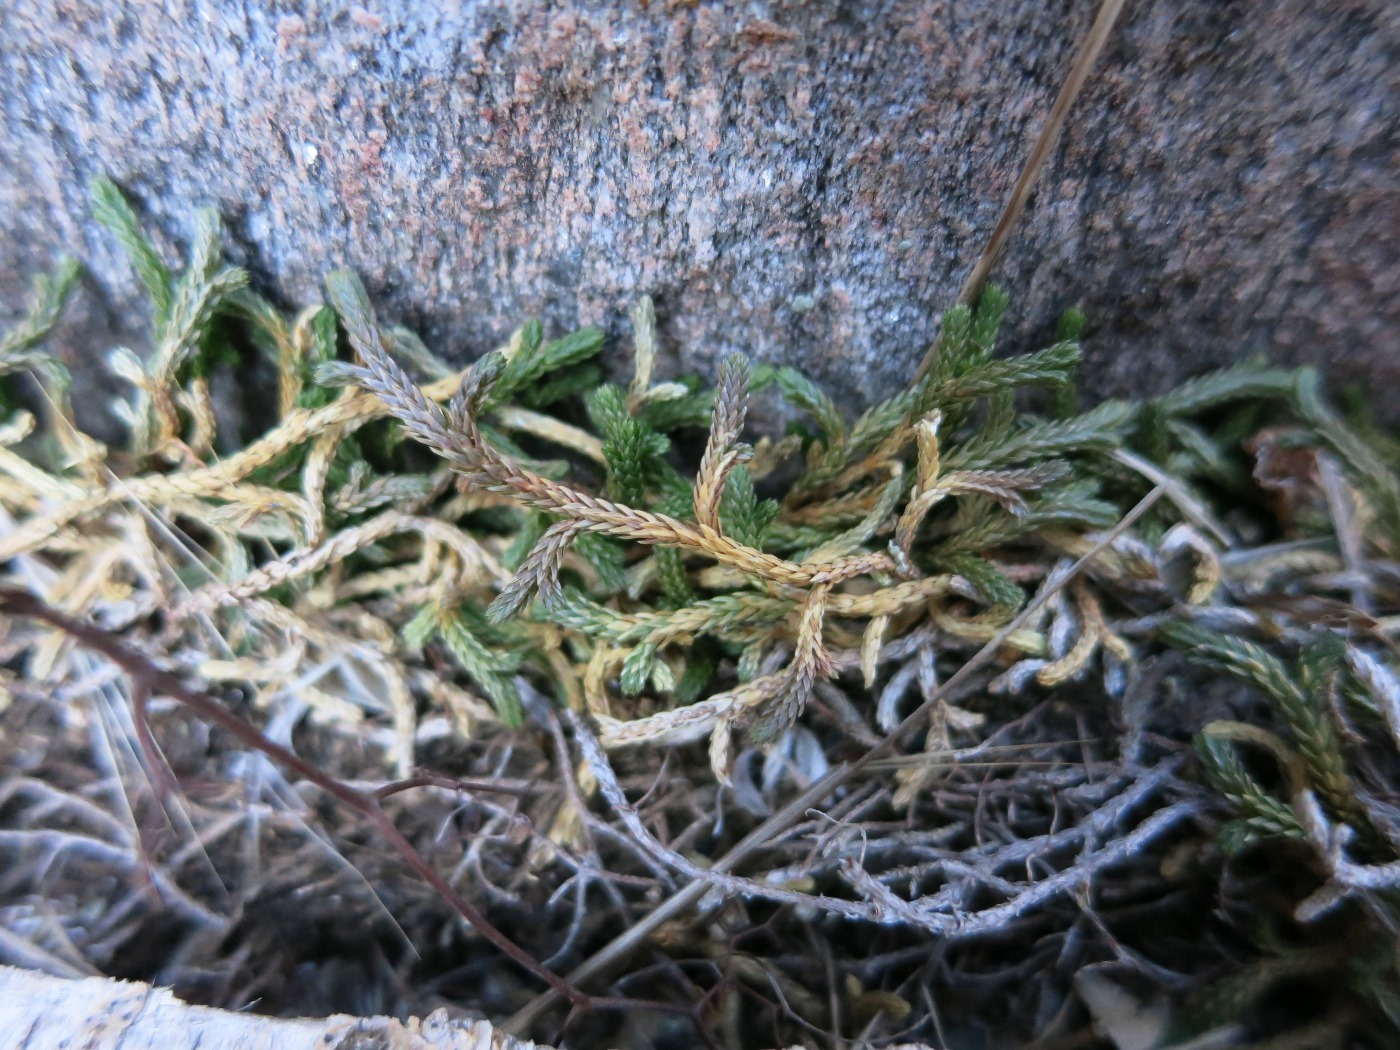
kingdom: Plantae
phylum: Tracheophyta
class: Lycopodiopsida
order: Selaginellales
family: Selaginellaceae
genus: Selaginella
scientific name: Selaginella mutica
